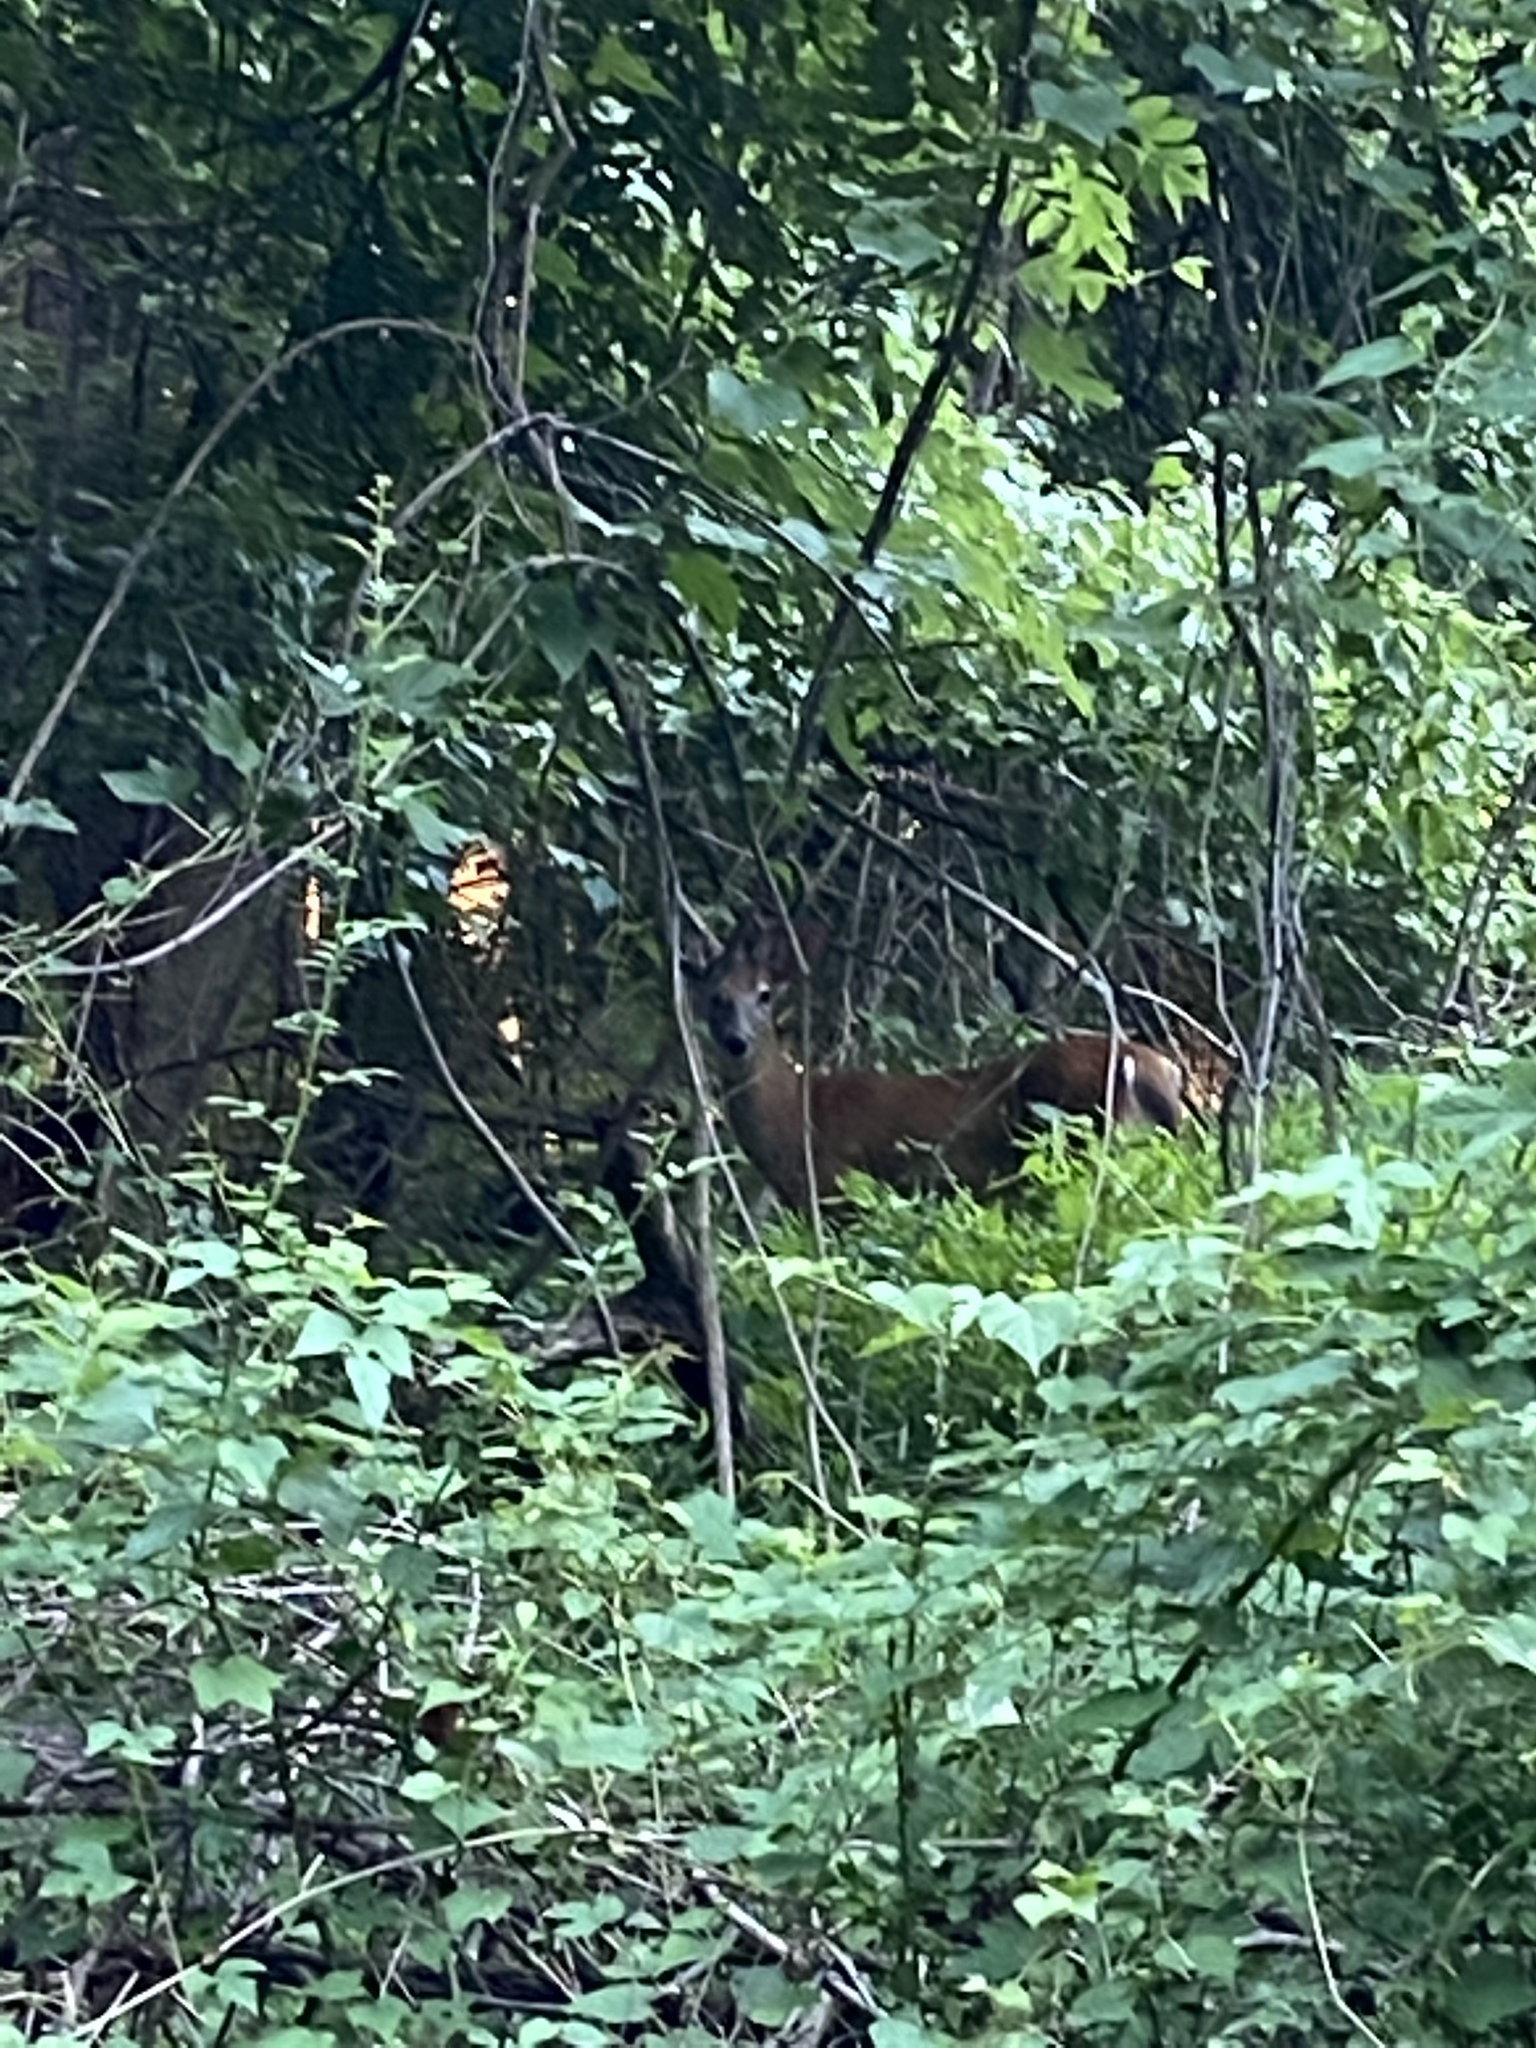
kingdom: Animalia
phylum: Chordata
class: Mammalia
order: Artiodactyla
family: Cervidae
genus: Odocoileus
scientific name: Odocoileus virginianus
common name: White-tailed deer
